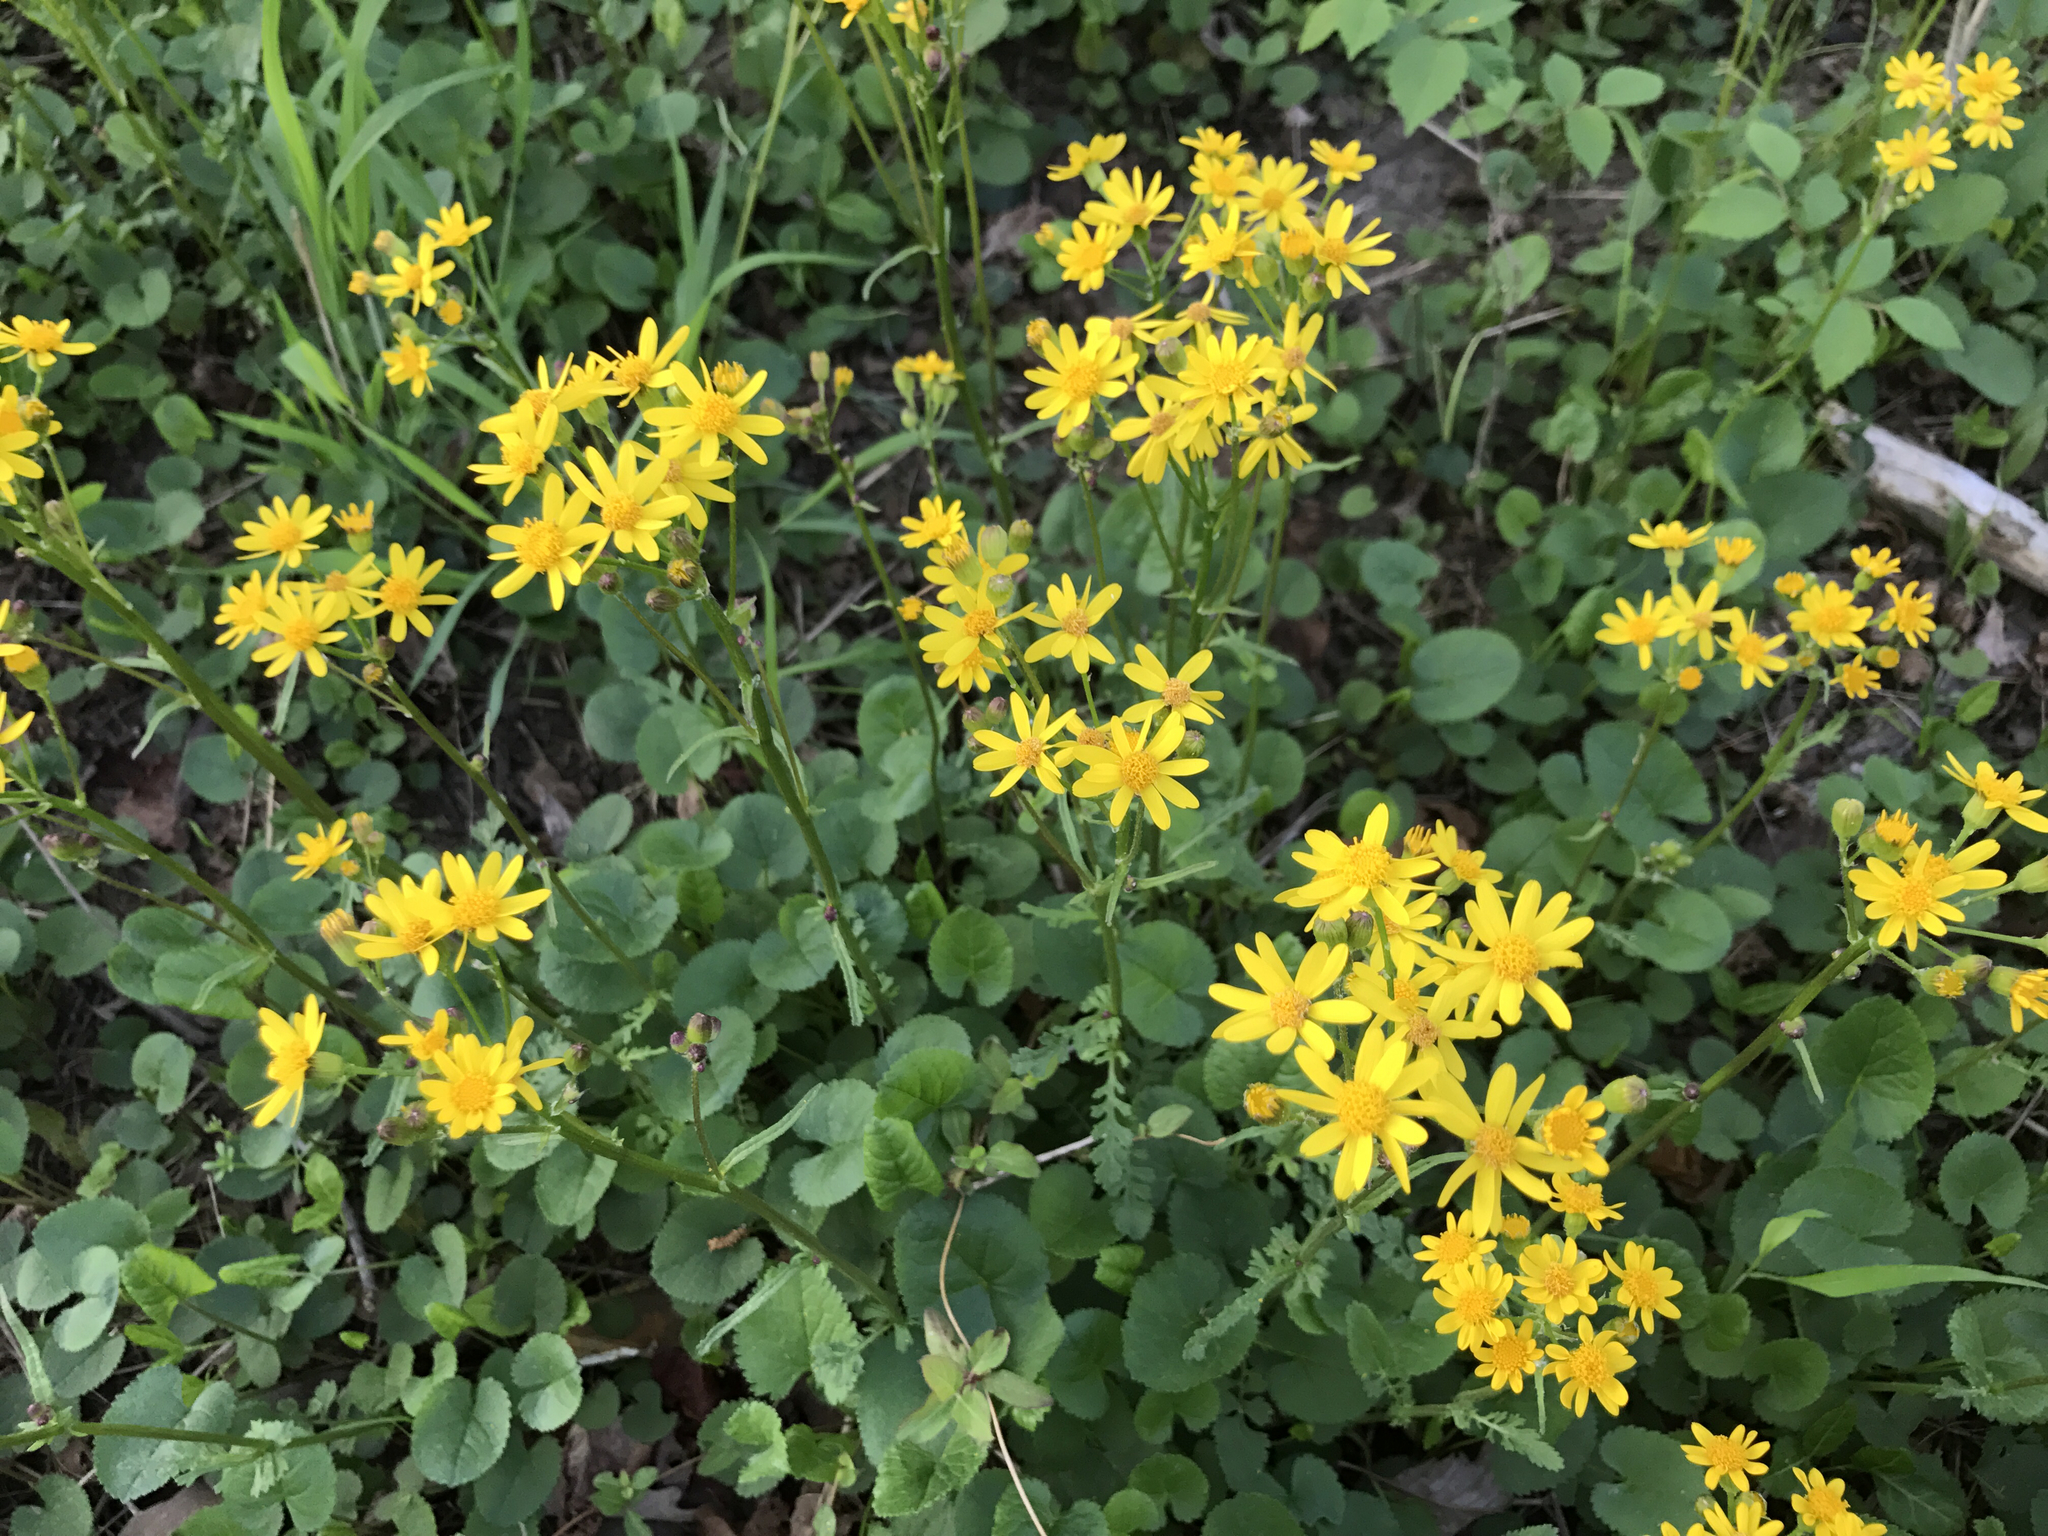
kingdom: Plantae
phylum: Tracheophyta
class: Magnoliopsida
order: Asterales
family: Asteraceae
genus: Packera
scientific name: Packera aurea
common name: Golden groundsel
